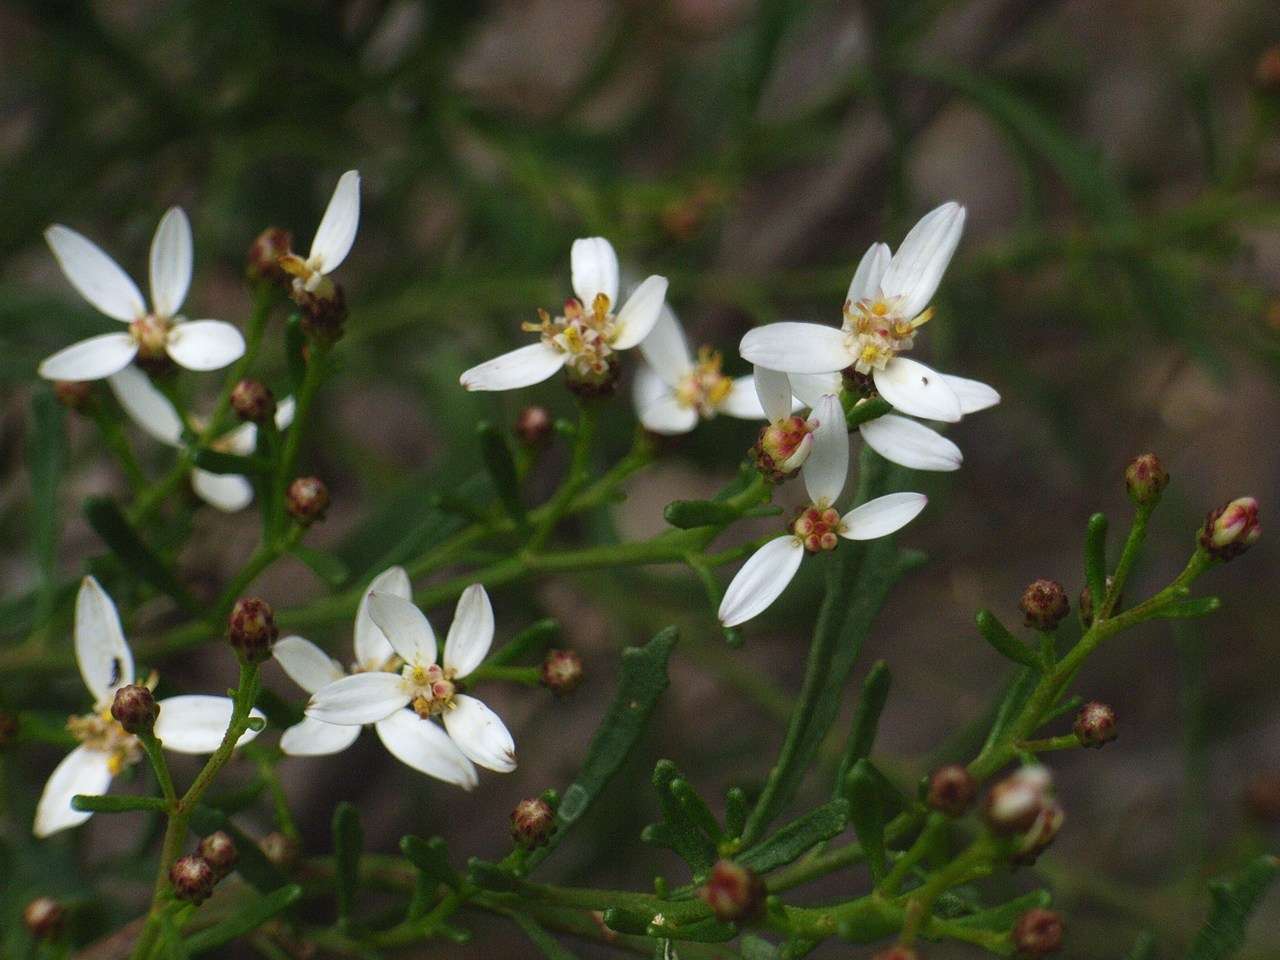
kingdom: Plantae
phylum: Tracheophyta
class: Magnoliopsida
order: Asterales
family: Asteraceae
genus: Olearia
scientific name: Olearia decurrens
